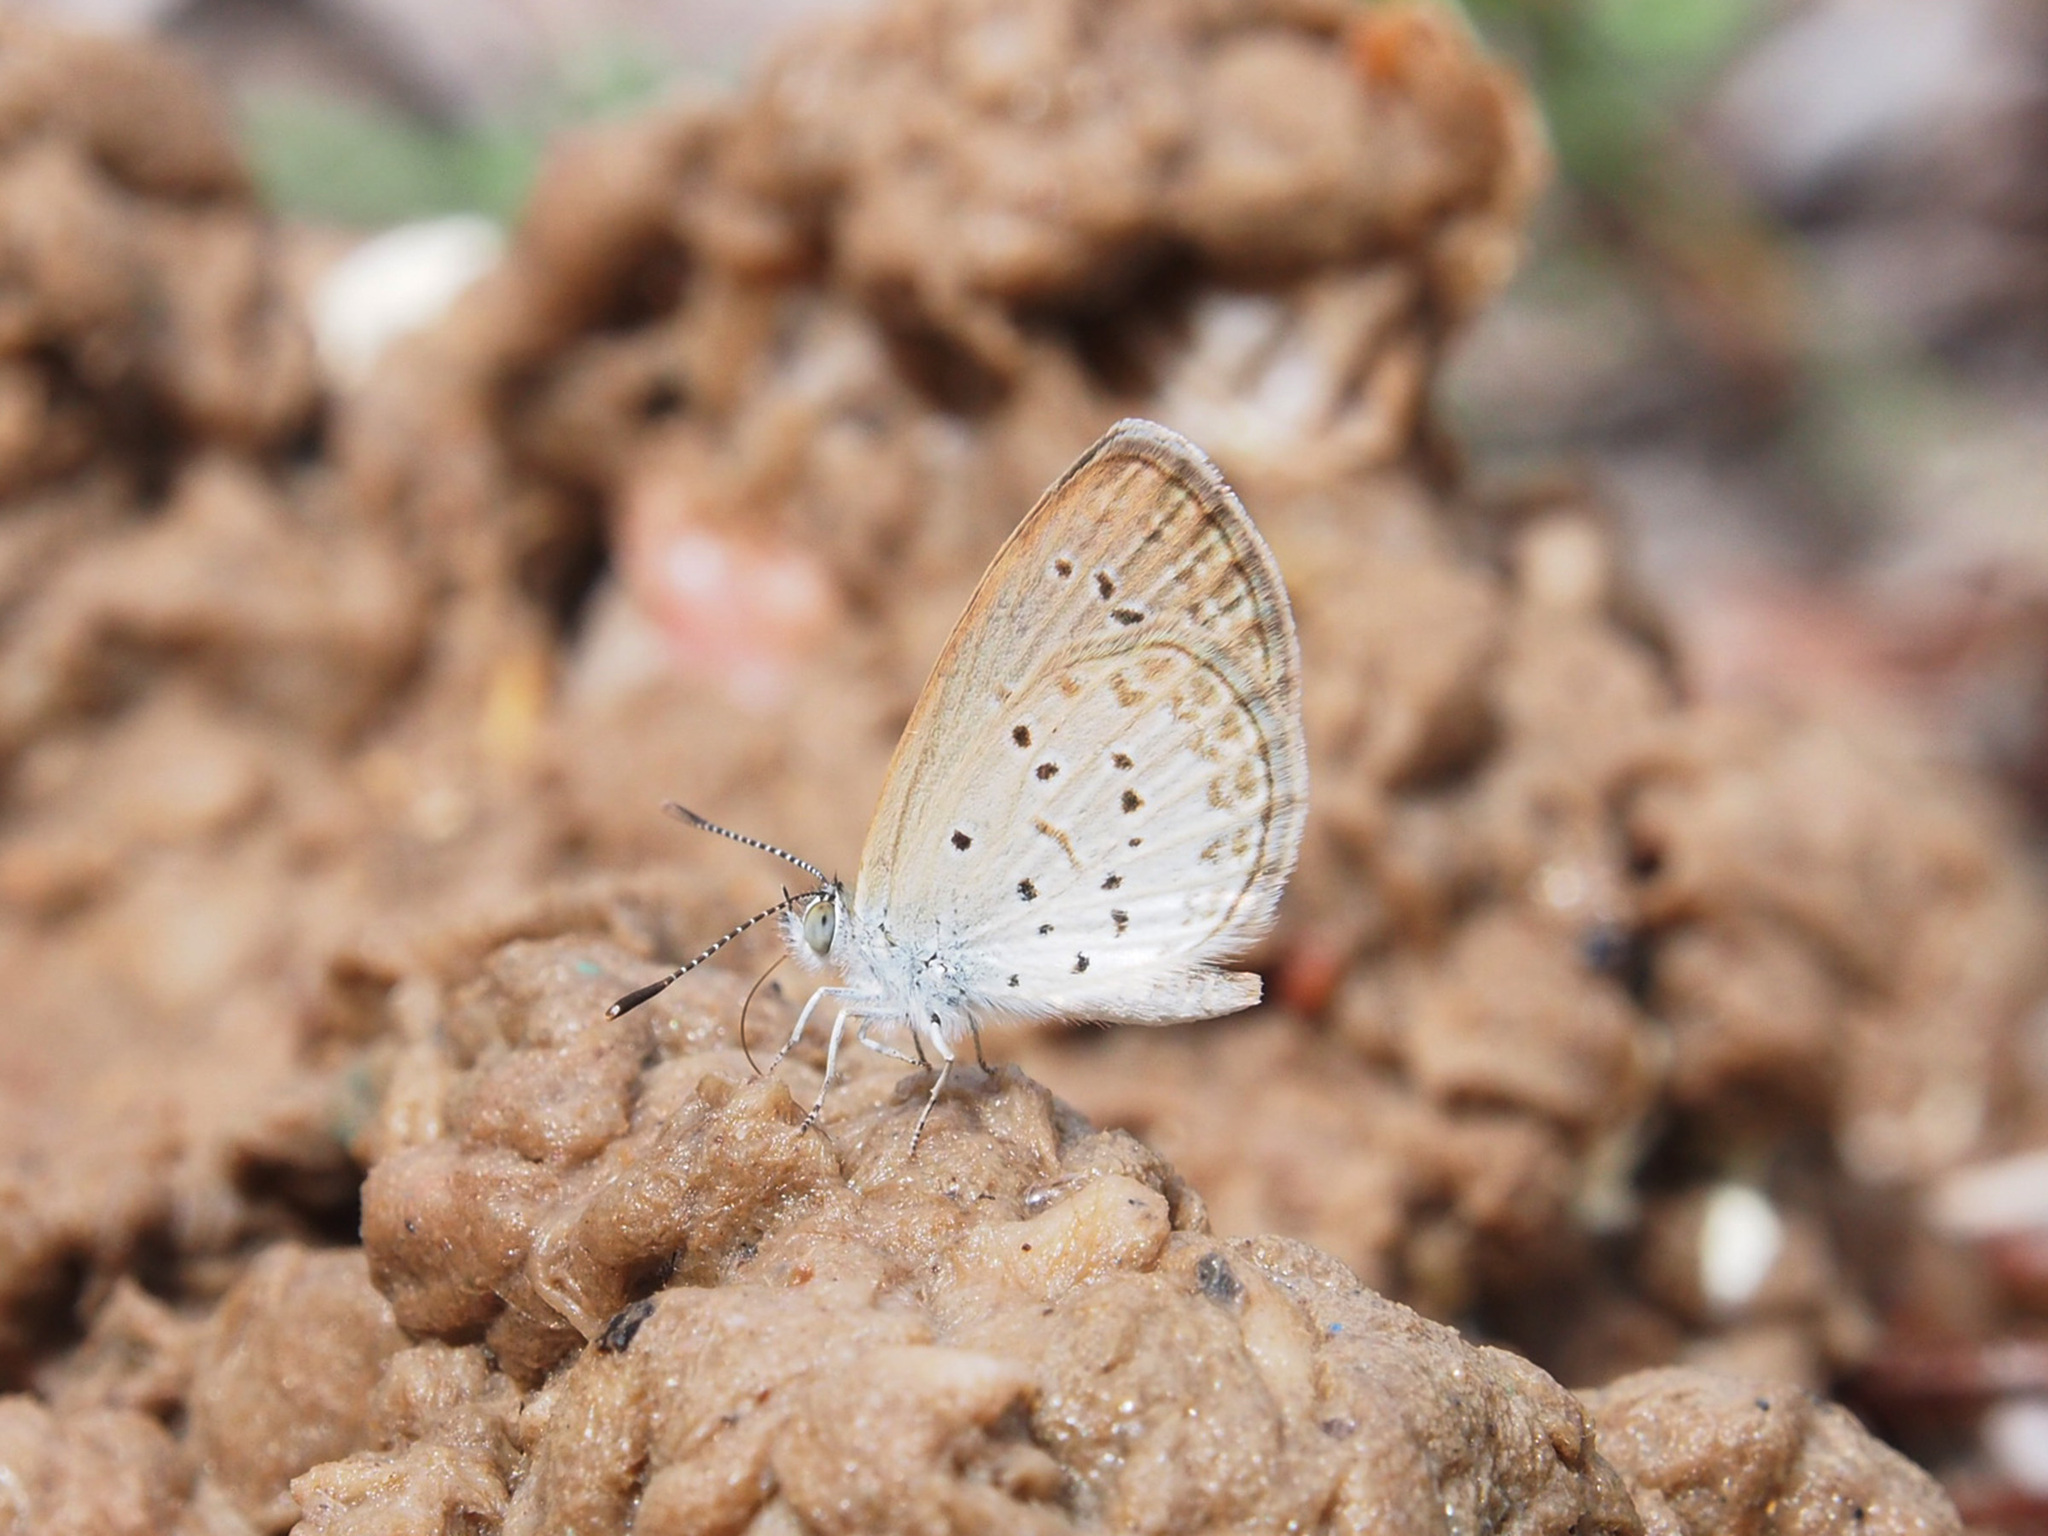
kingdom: Animalia
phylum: Arthropoda
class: Insecta
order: Lepidoptera
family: Lycaenidae
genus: Zizina
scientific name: Zizina otis
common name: Lesser grass blue
